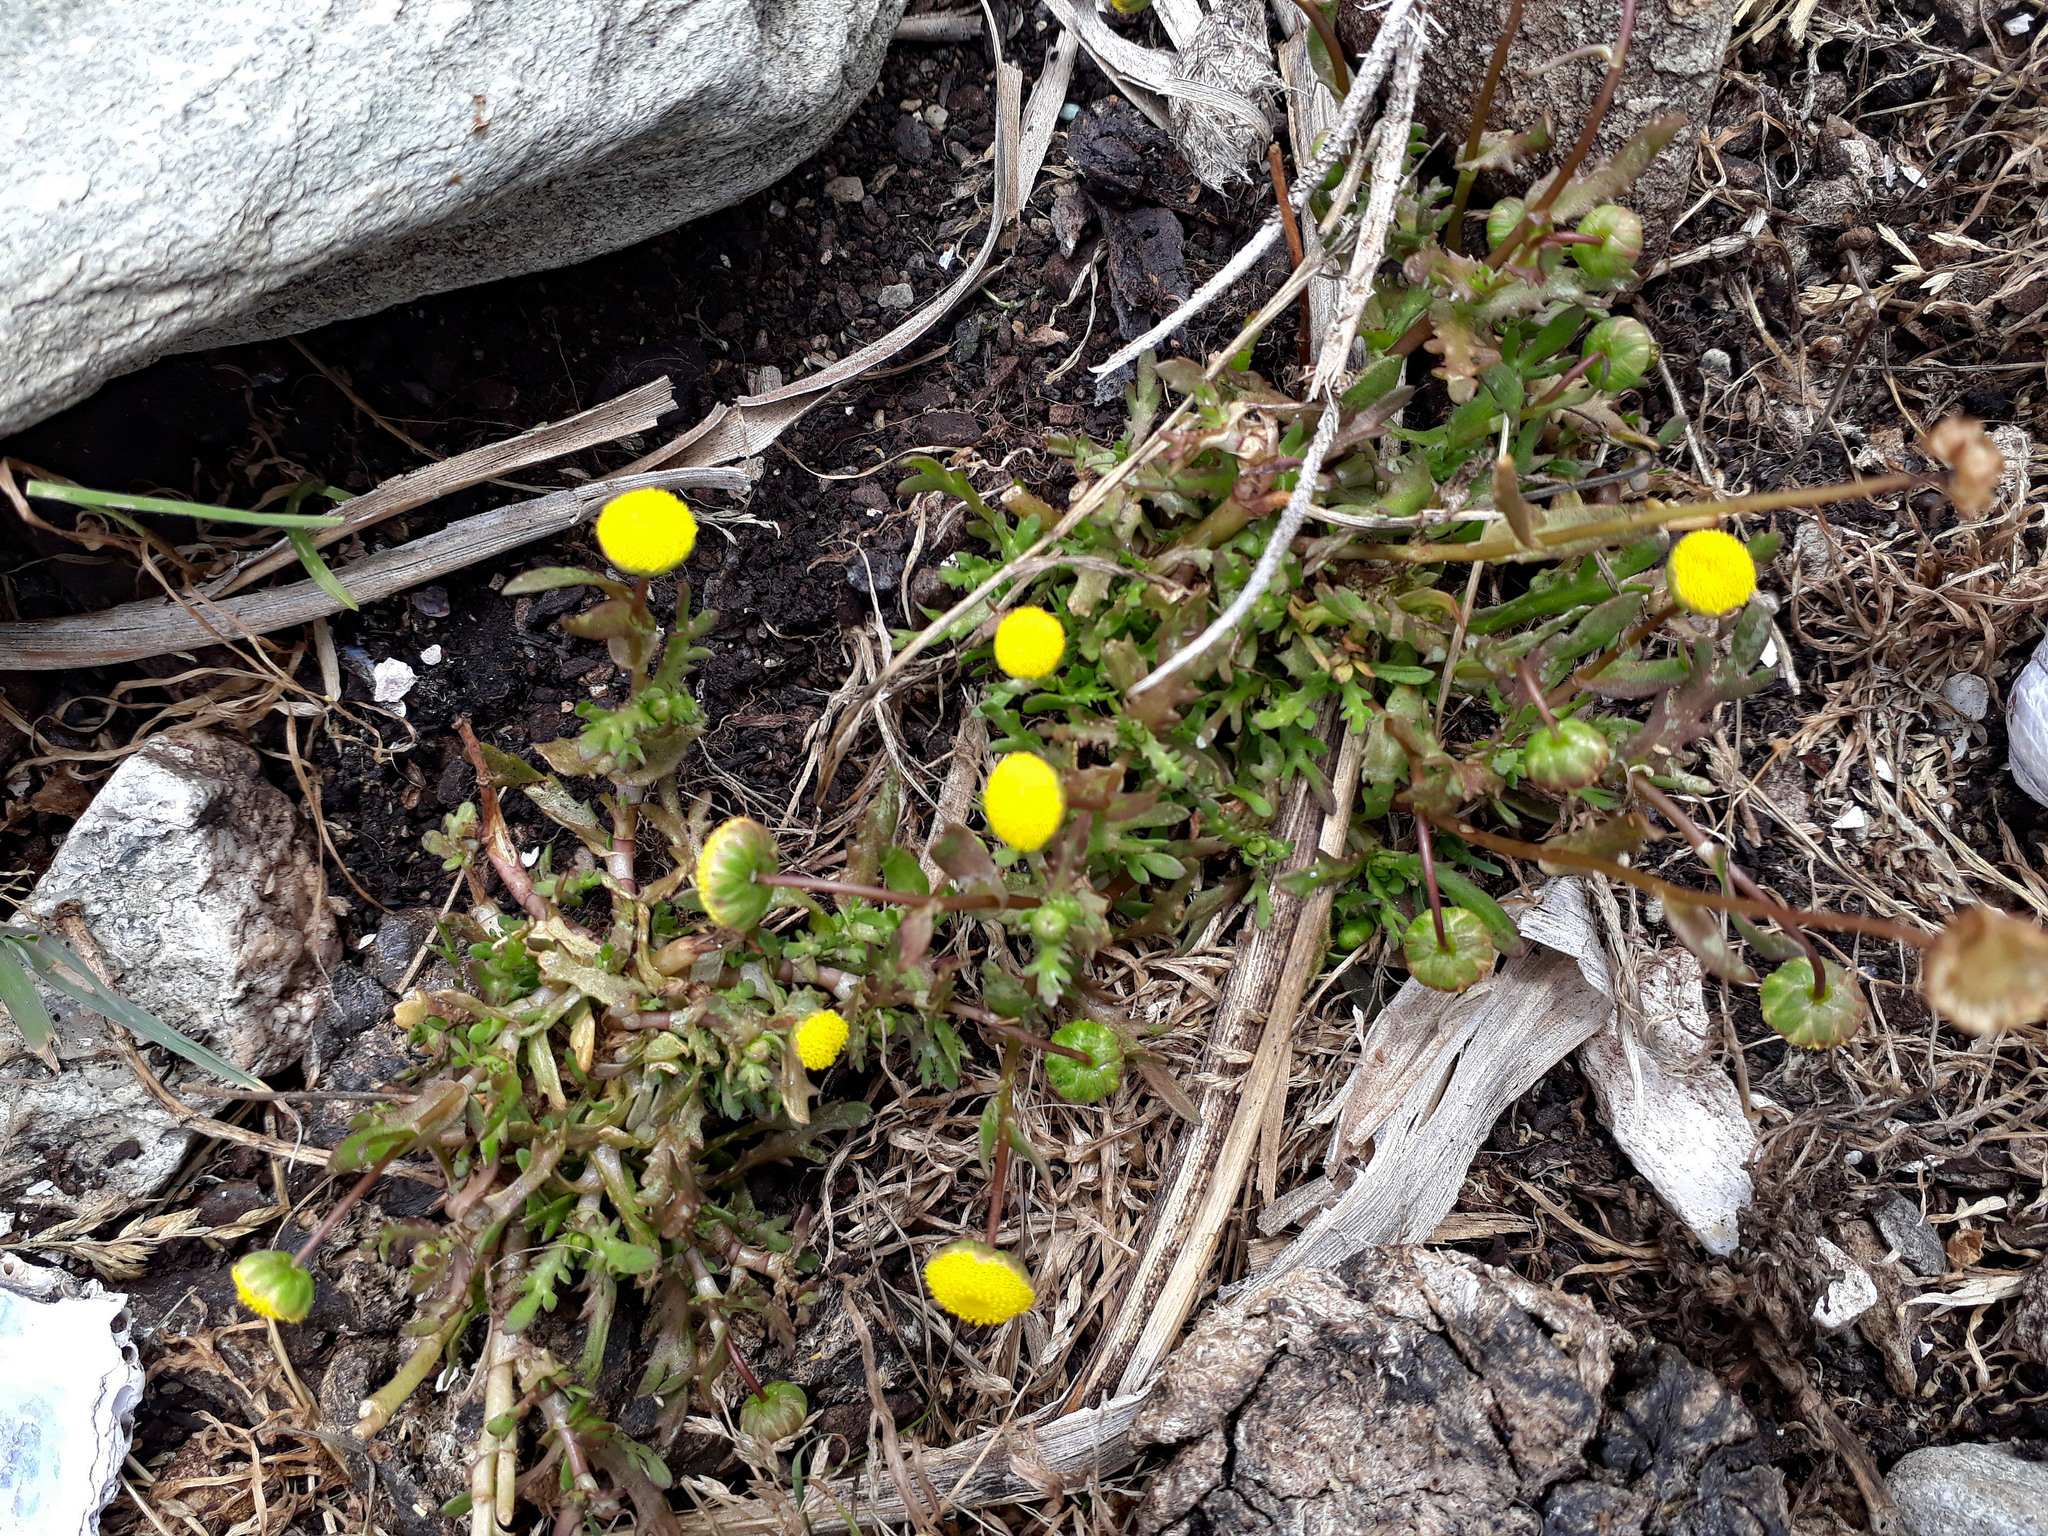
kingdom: Plantae
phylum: Tracheophyta
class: Magnoliopsida
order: Asterales
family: Asteraceae
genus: Cotula
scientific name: Cotula coronopifolia
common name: Buttonweed
